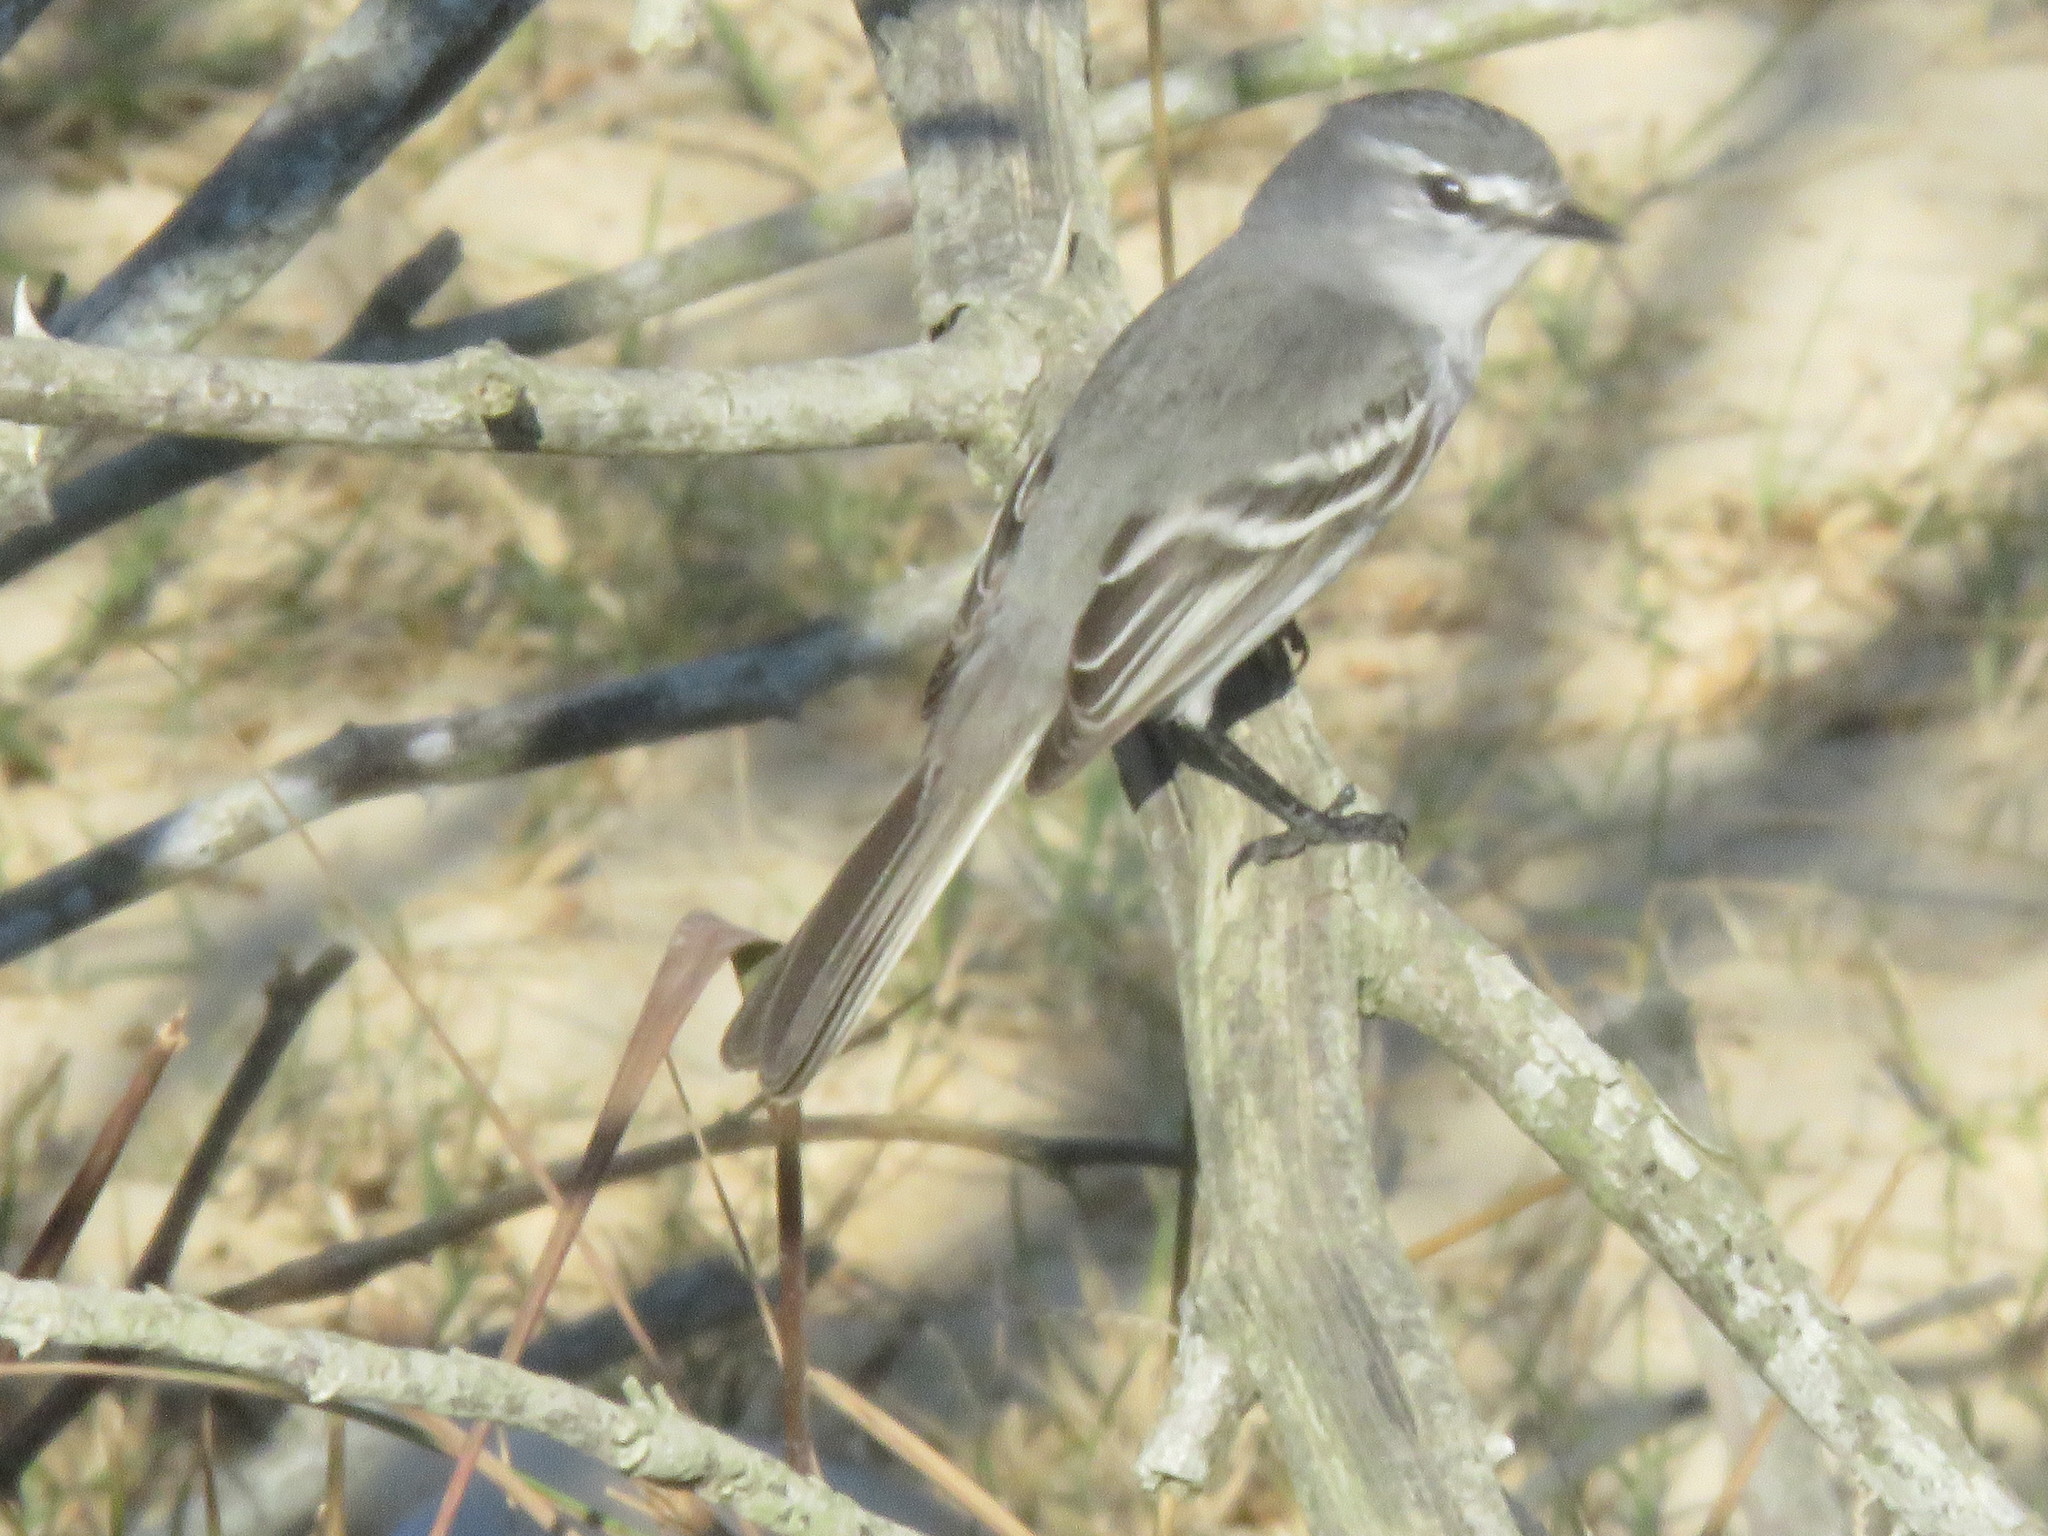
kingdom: Animalia
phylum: Chordata
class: Aves
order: Passeriformes
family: Tyrannidae
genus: Serpophaga
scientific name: Serpophaga subcristata
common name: White-crested tyrannulet
